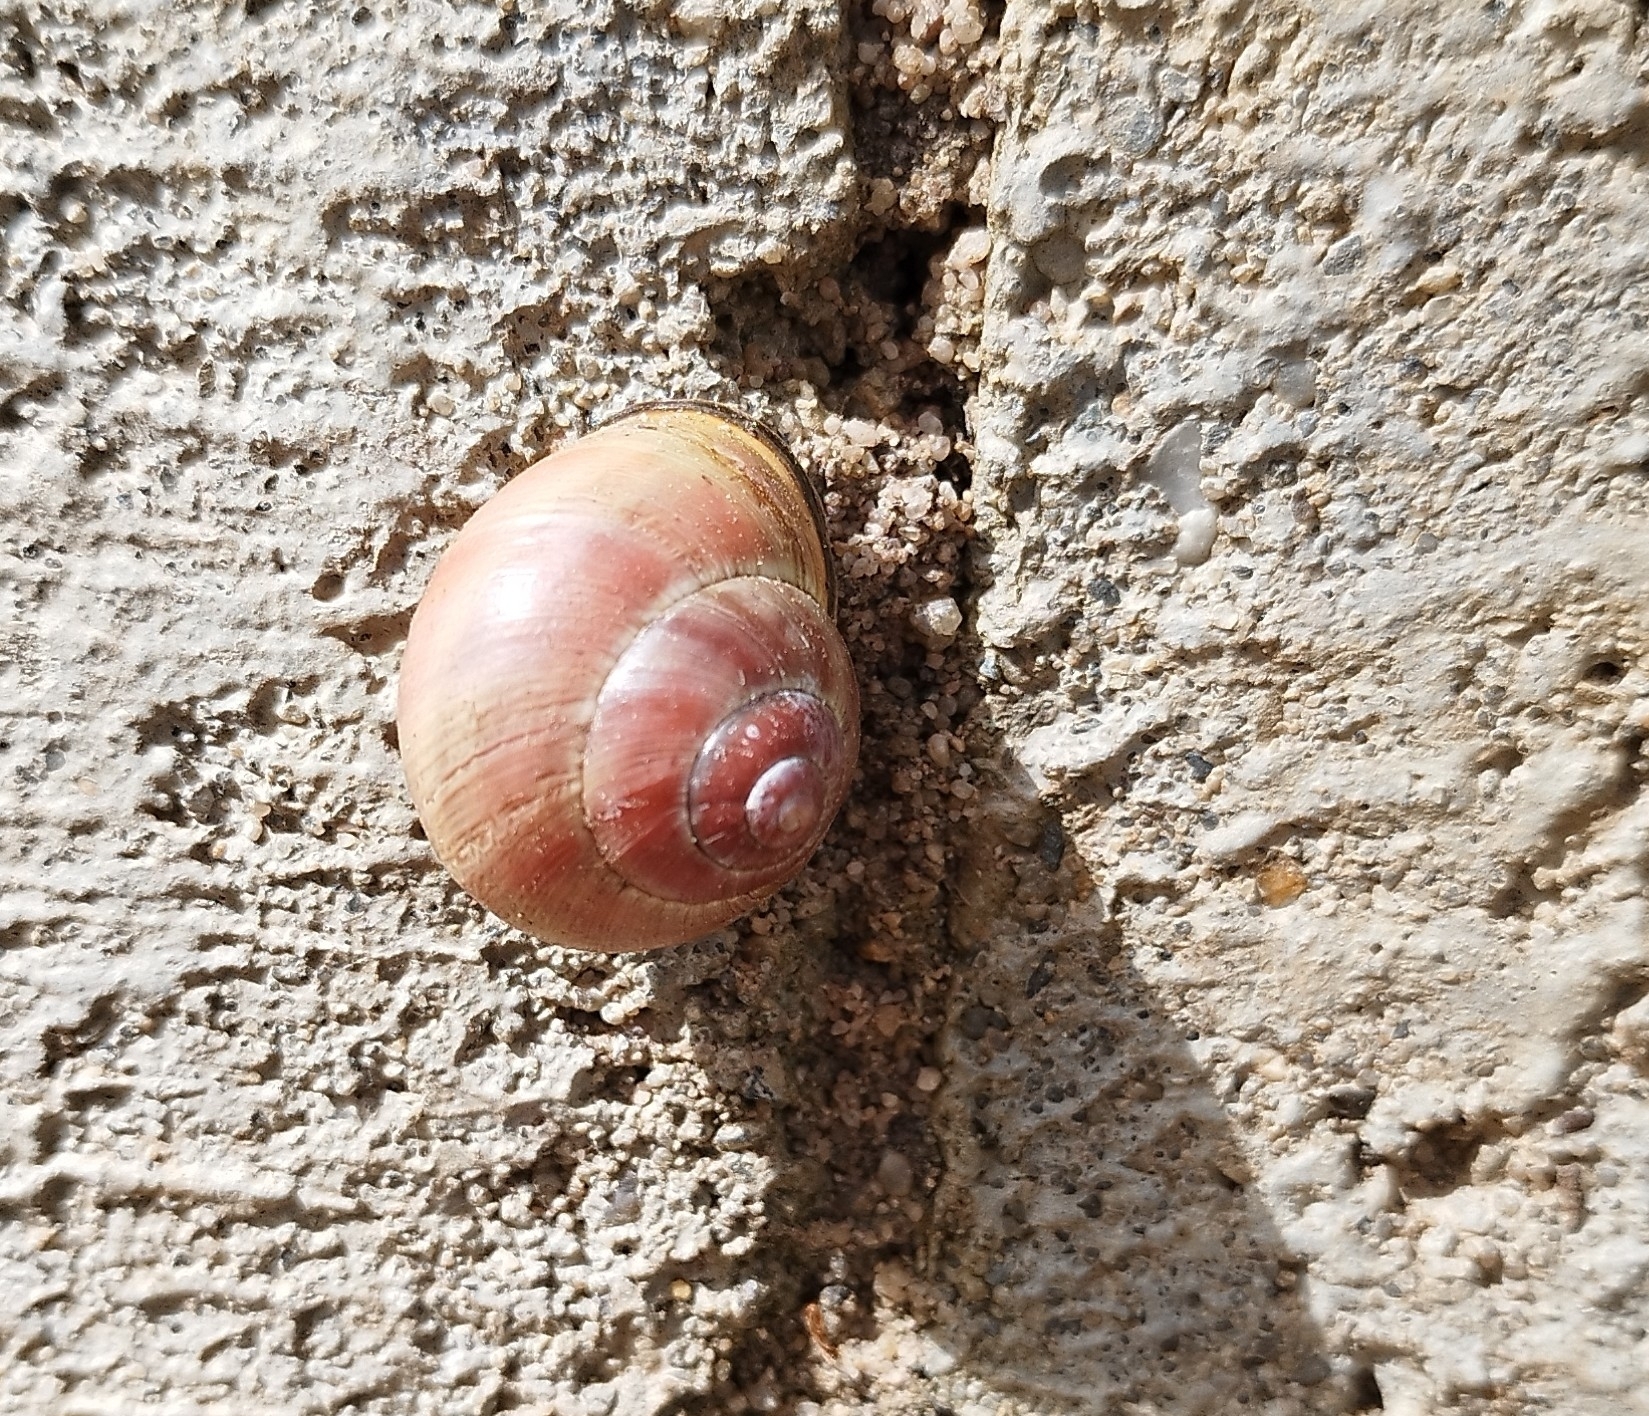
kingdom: Animalia
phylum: Mollusca
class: Gastropoda
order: Stylommatophora
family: Helicidae
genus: Cepaea
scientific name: Cepaea nemoralis
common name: Grovesnail
